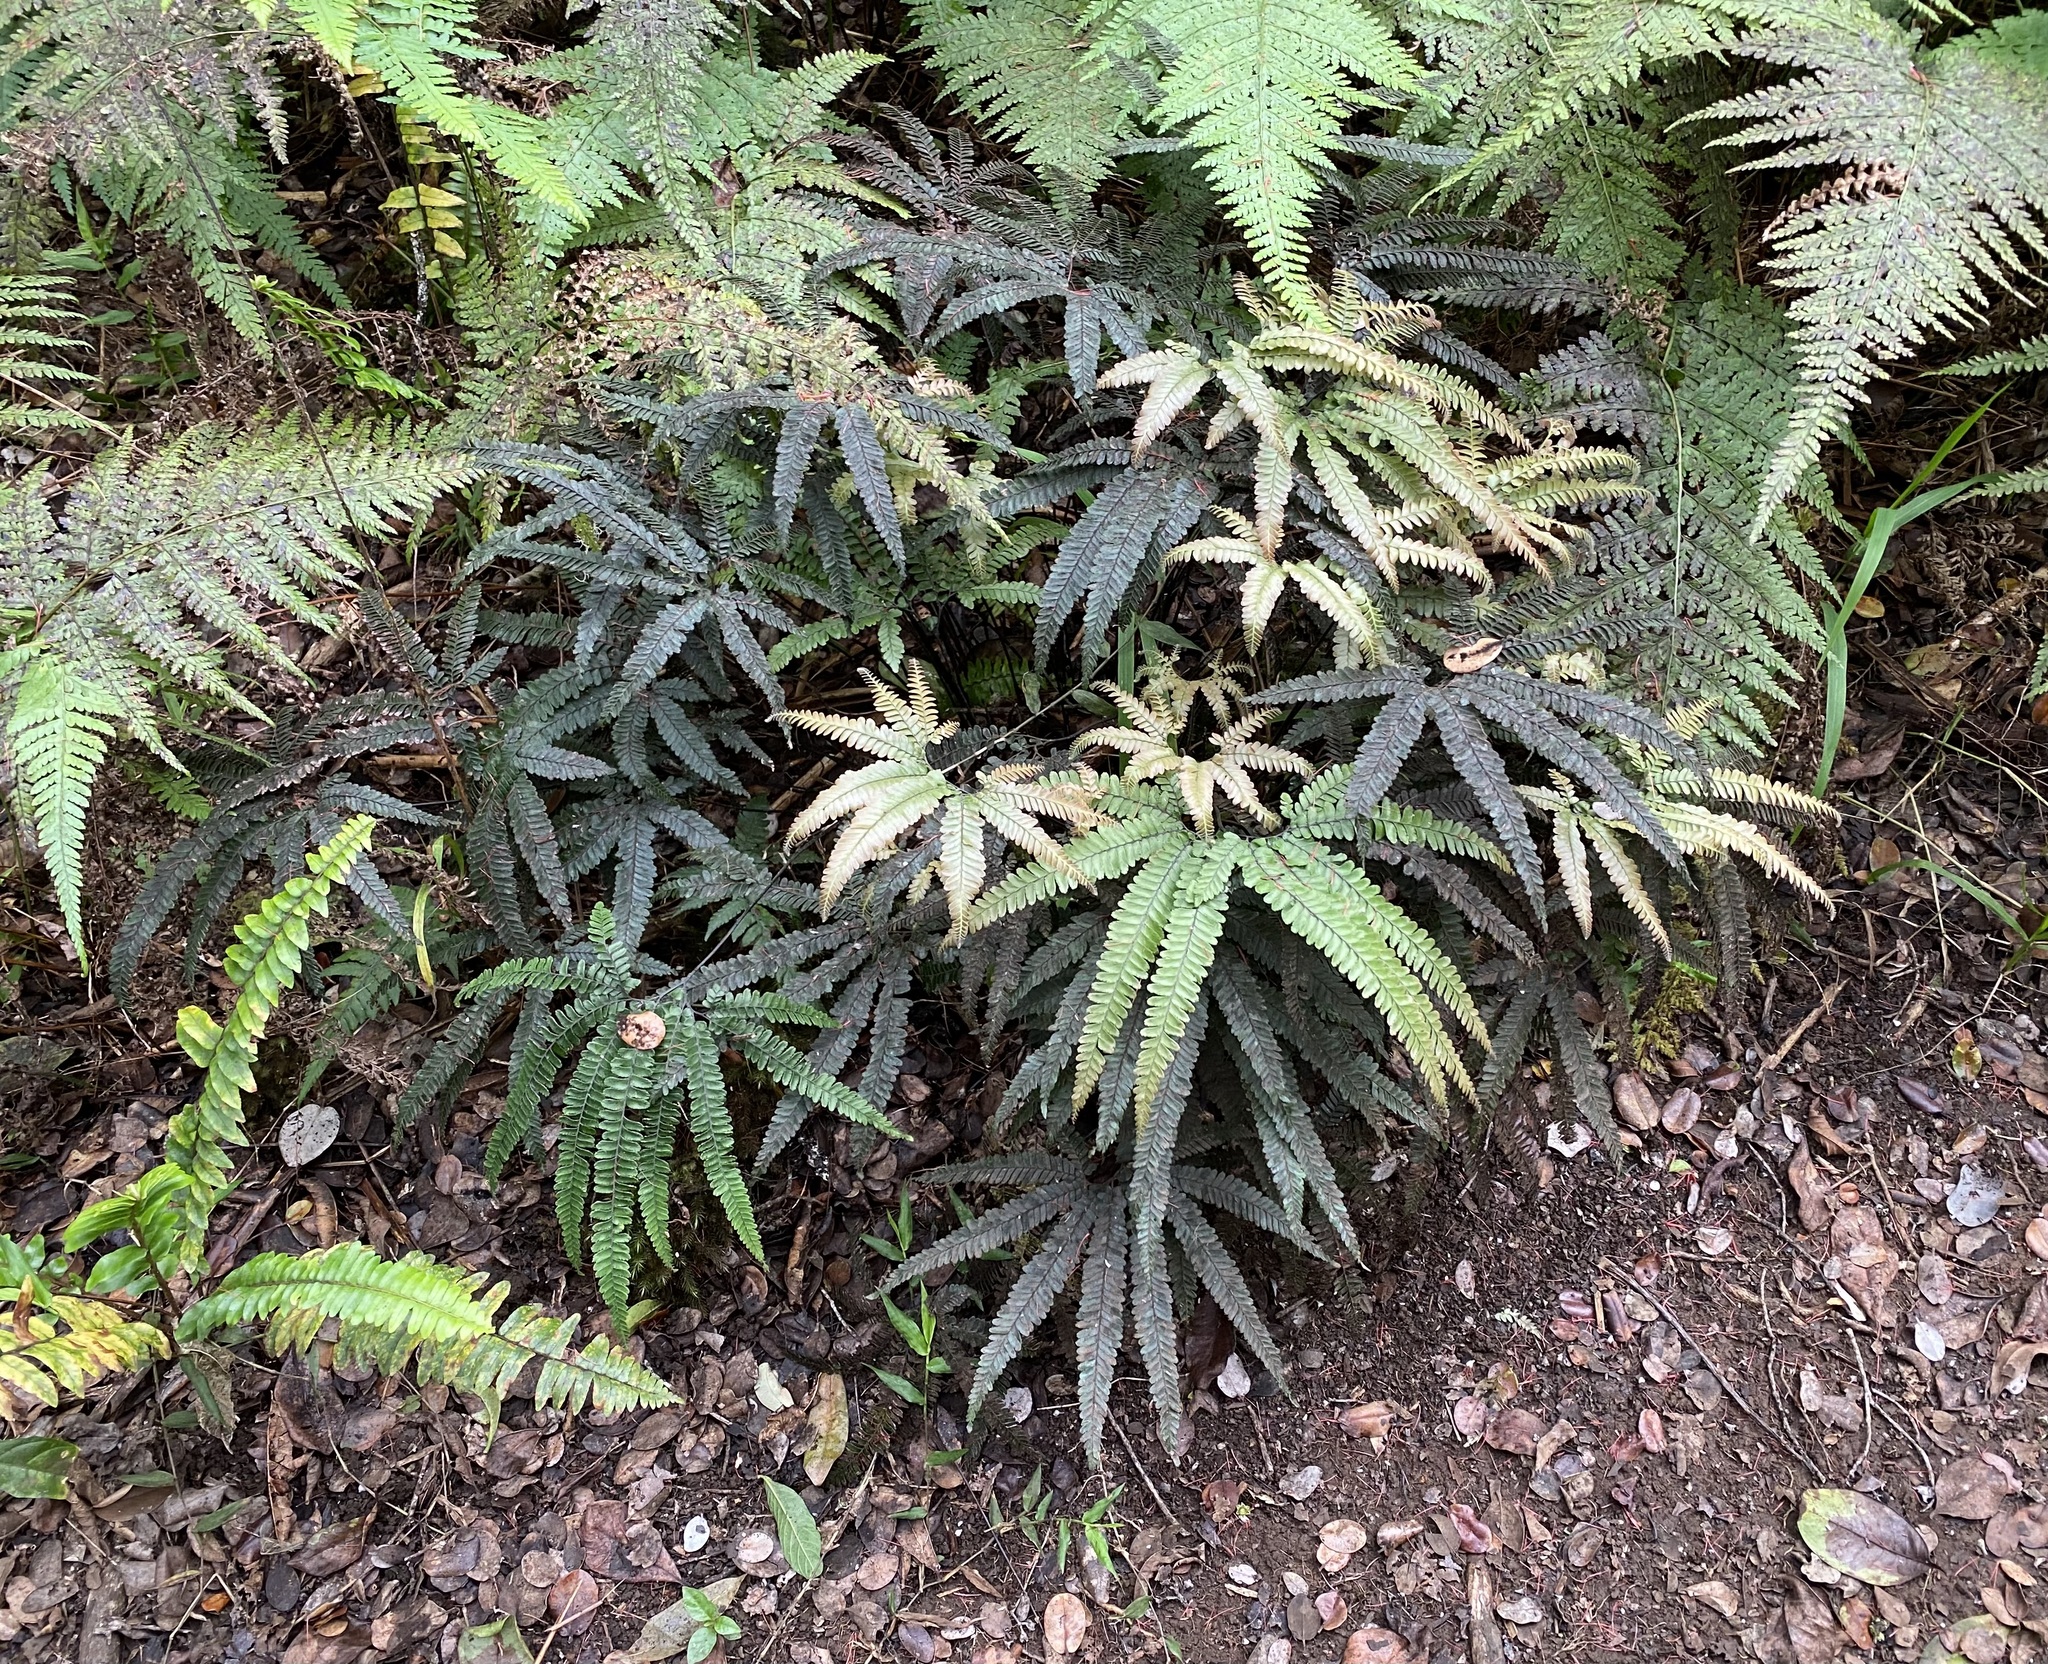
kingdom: Plantae
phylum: Tracheophyta
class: Polypodiopsida
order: Polypodiales
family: Pteridaceae
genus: Adiantum
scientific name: Adiantum hispidulum
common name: Rough maidenhair
